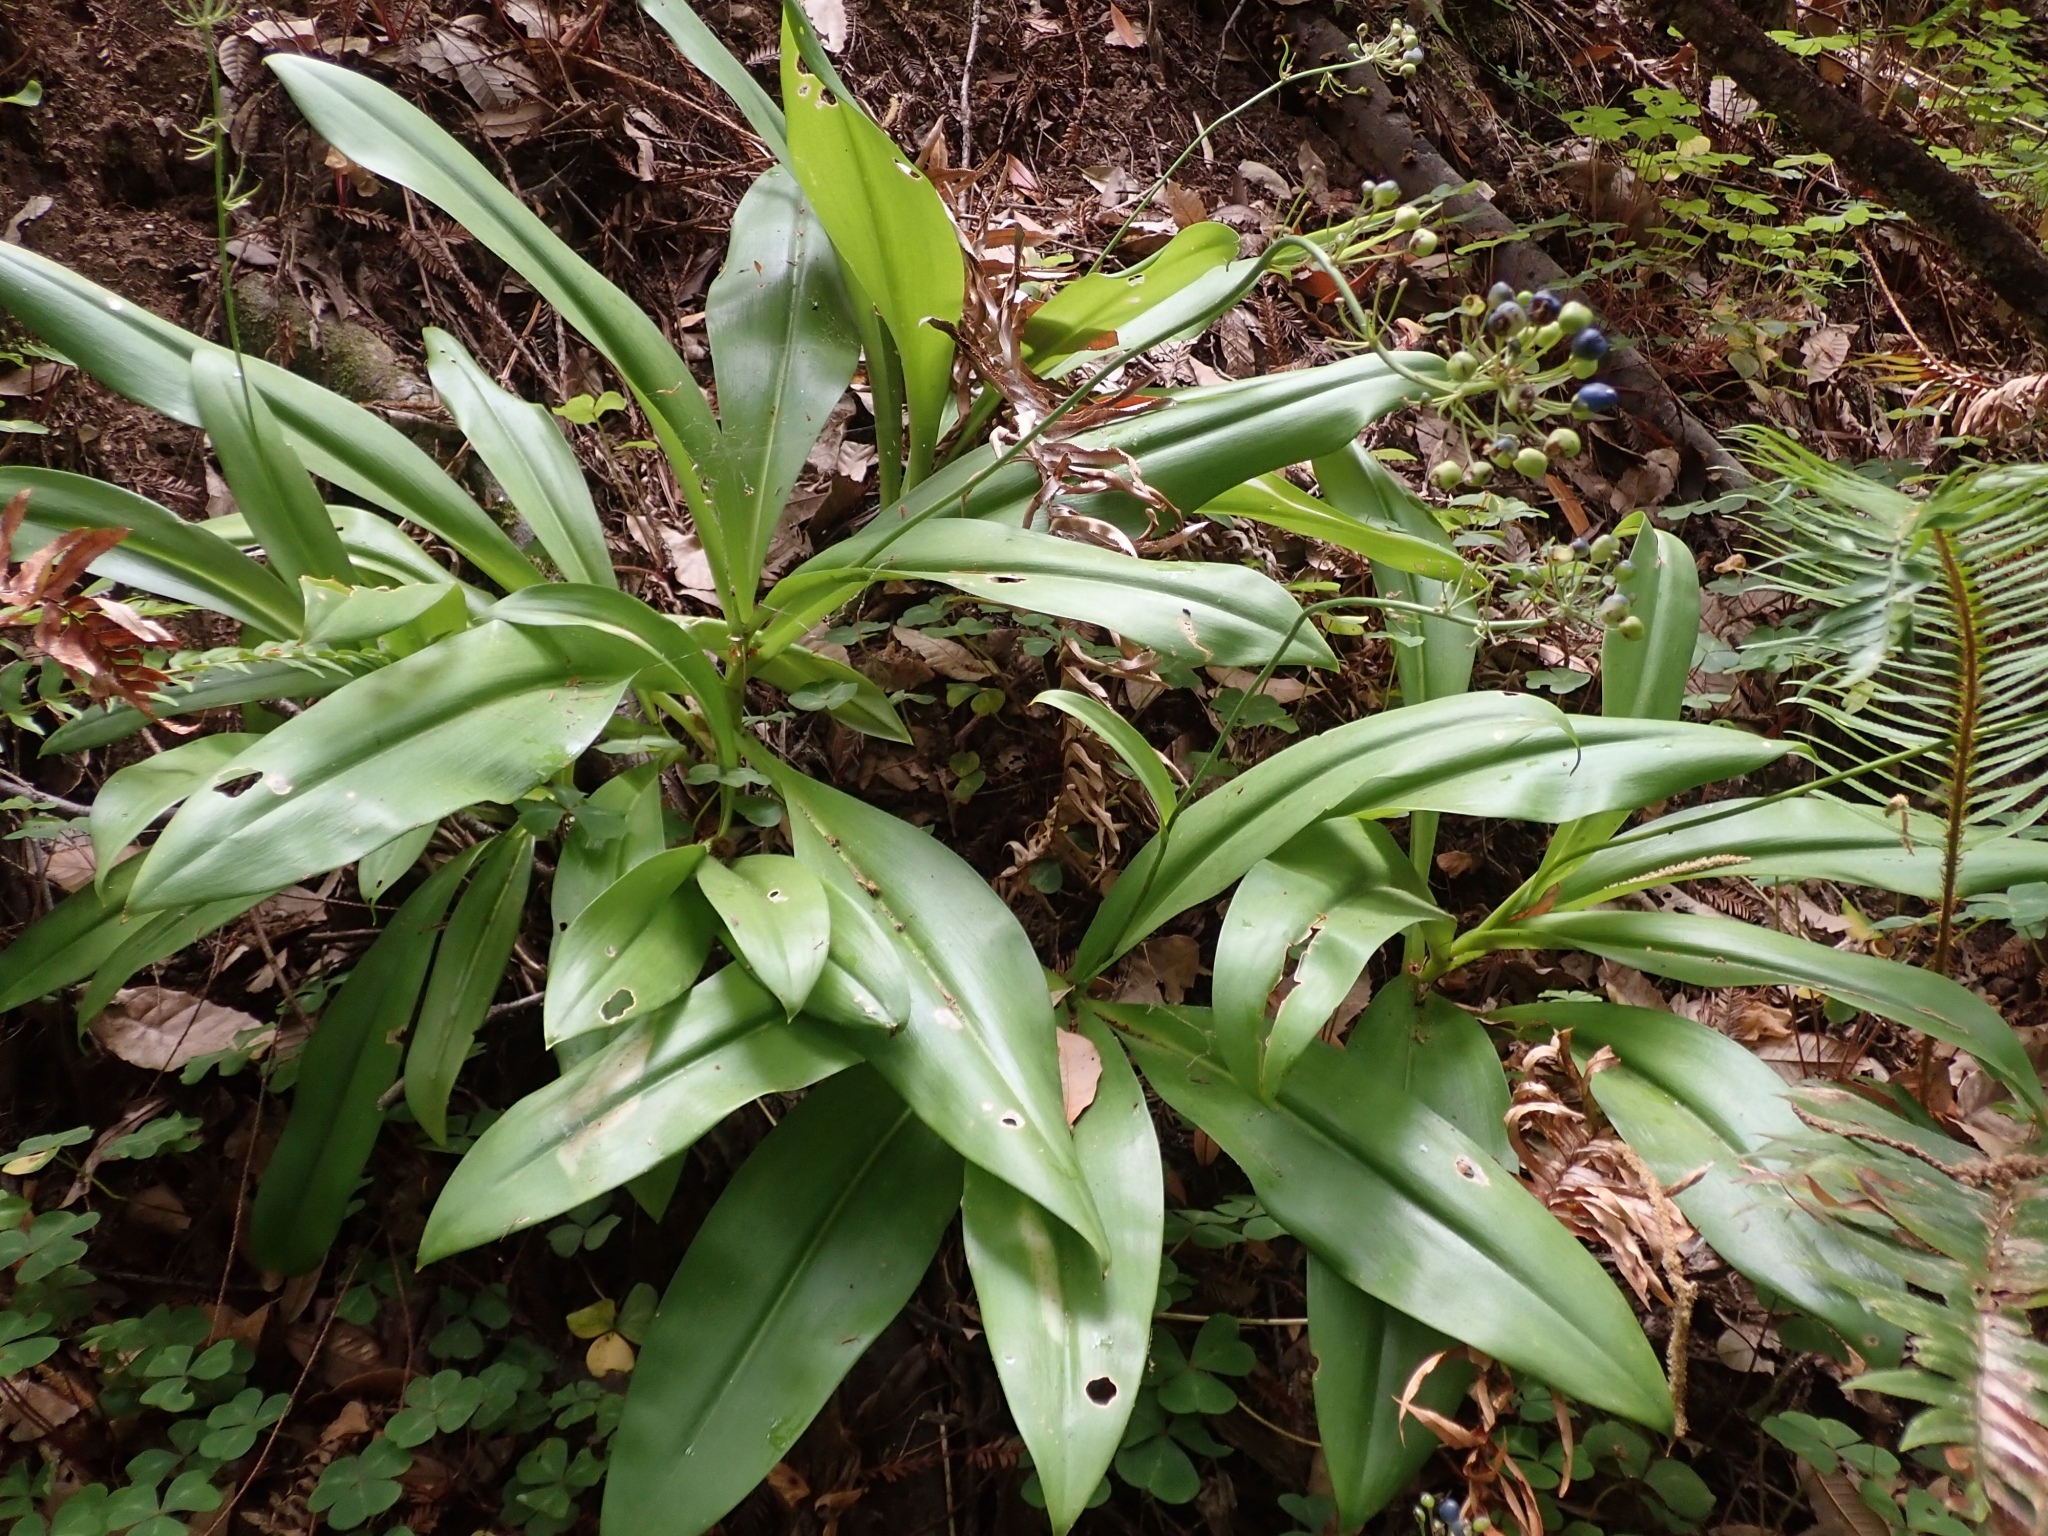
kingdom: Plantae
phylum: Tracheophyta
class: Liliopsida
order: Liliales
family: Liliaceae
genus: Clintonia
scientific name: Clintonia andrewsiana
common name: Red clintonia
